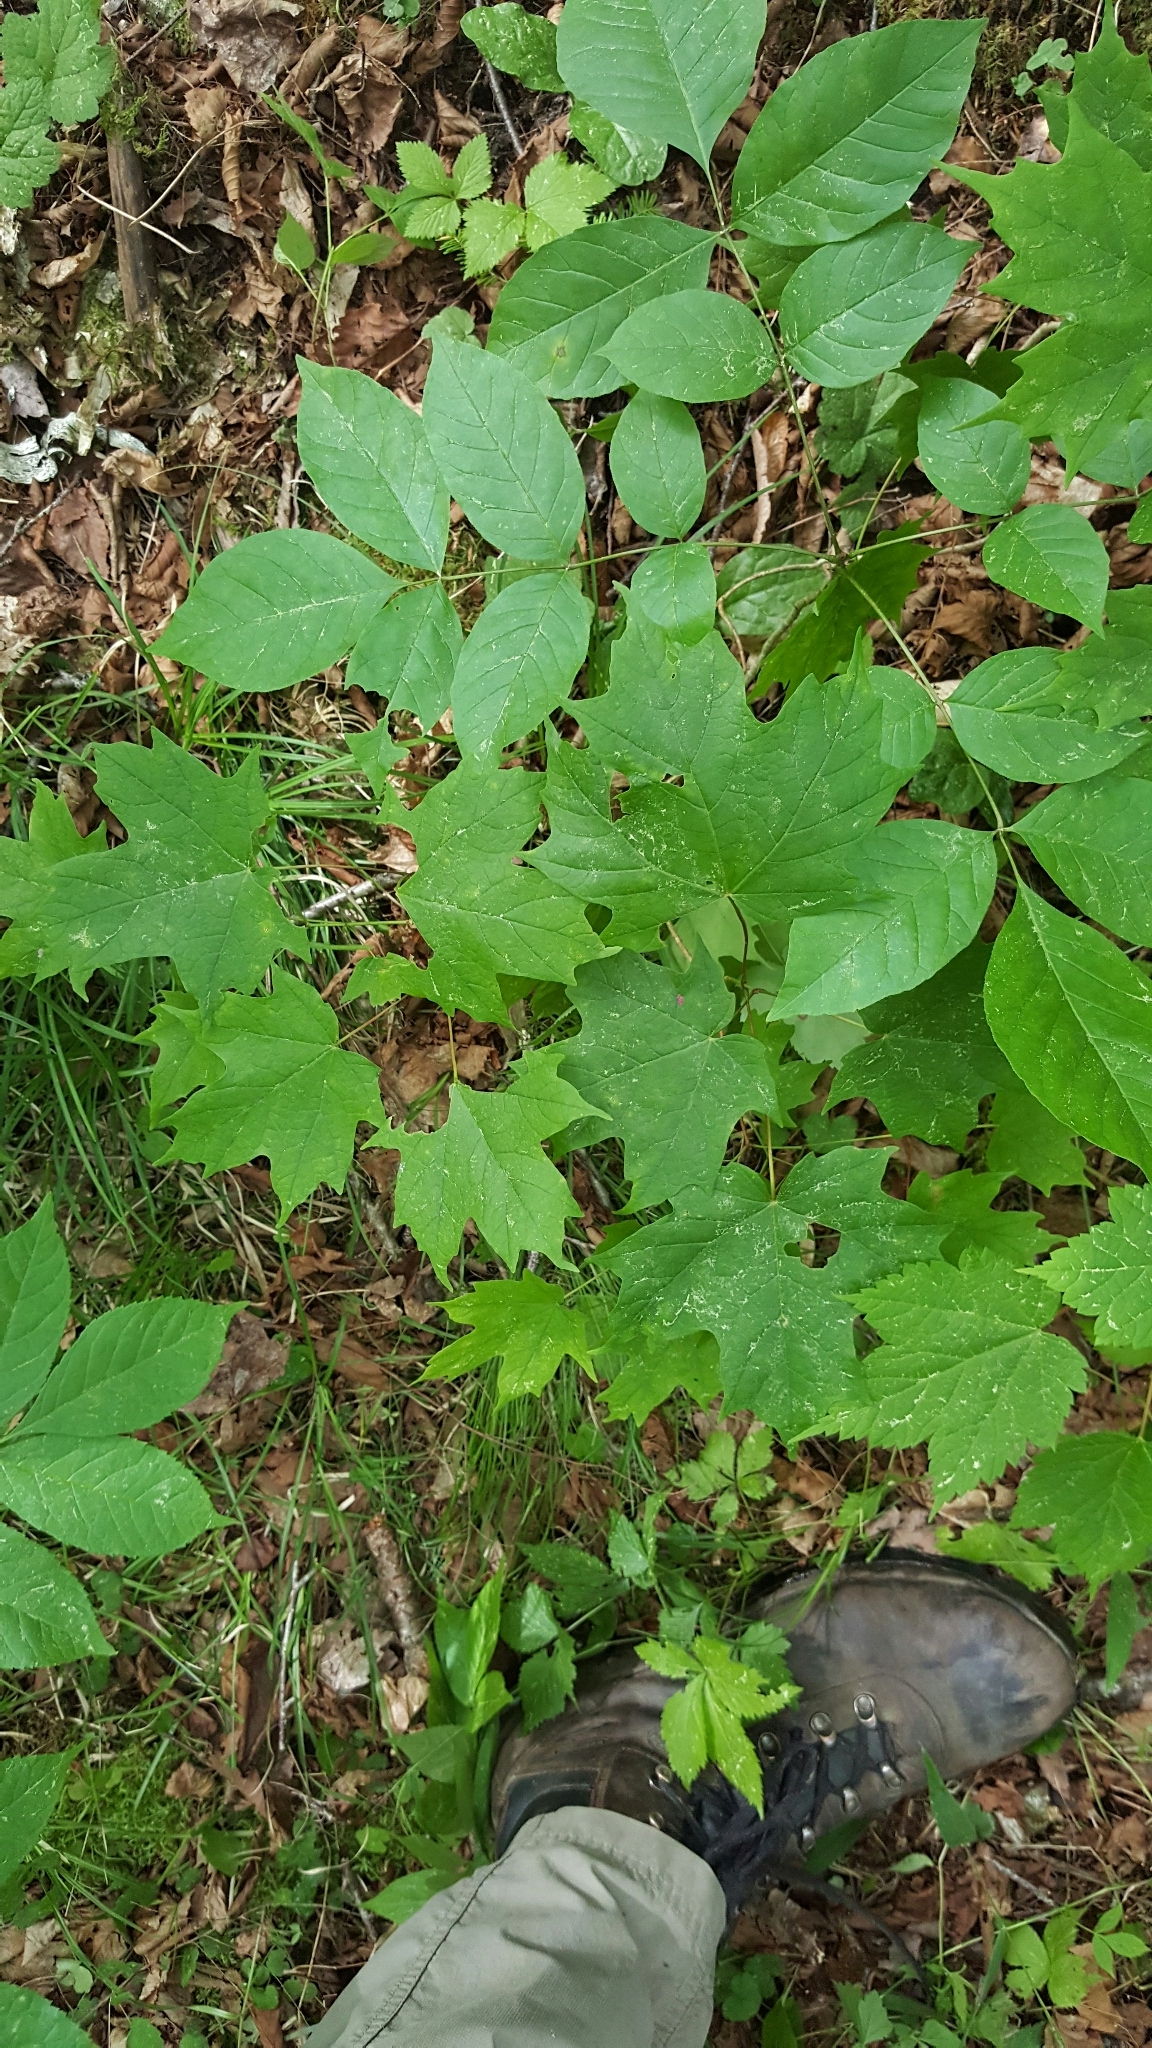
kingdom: Plantae
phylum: Tracheophyta
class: Magnoliopsida
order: Sapindales
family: Sapindaceae
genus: Acer
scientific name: Acer saccharum
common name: Sugar maple
